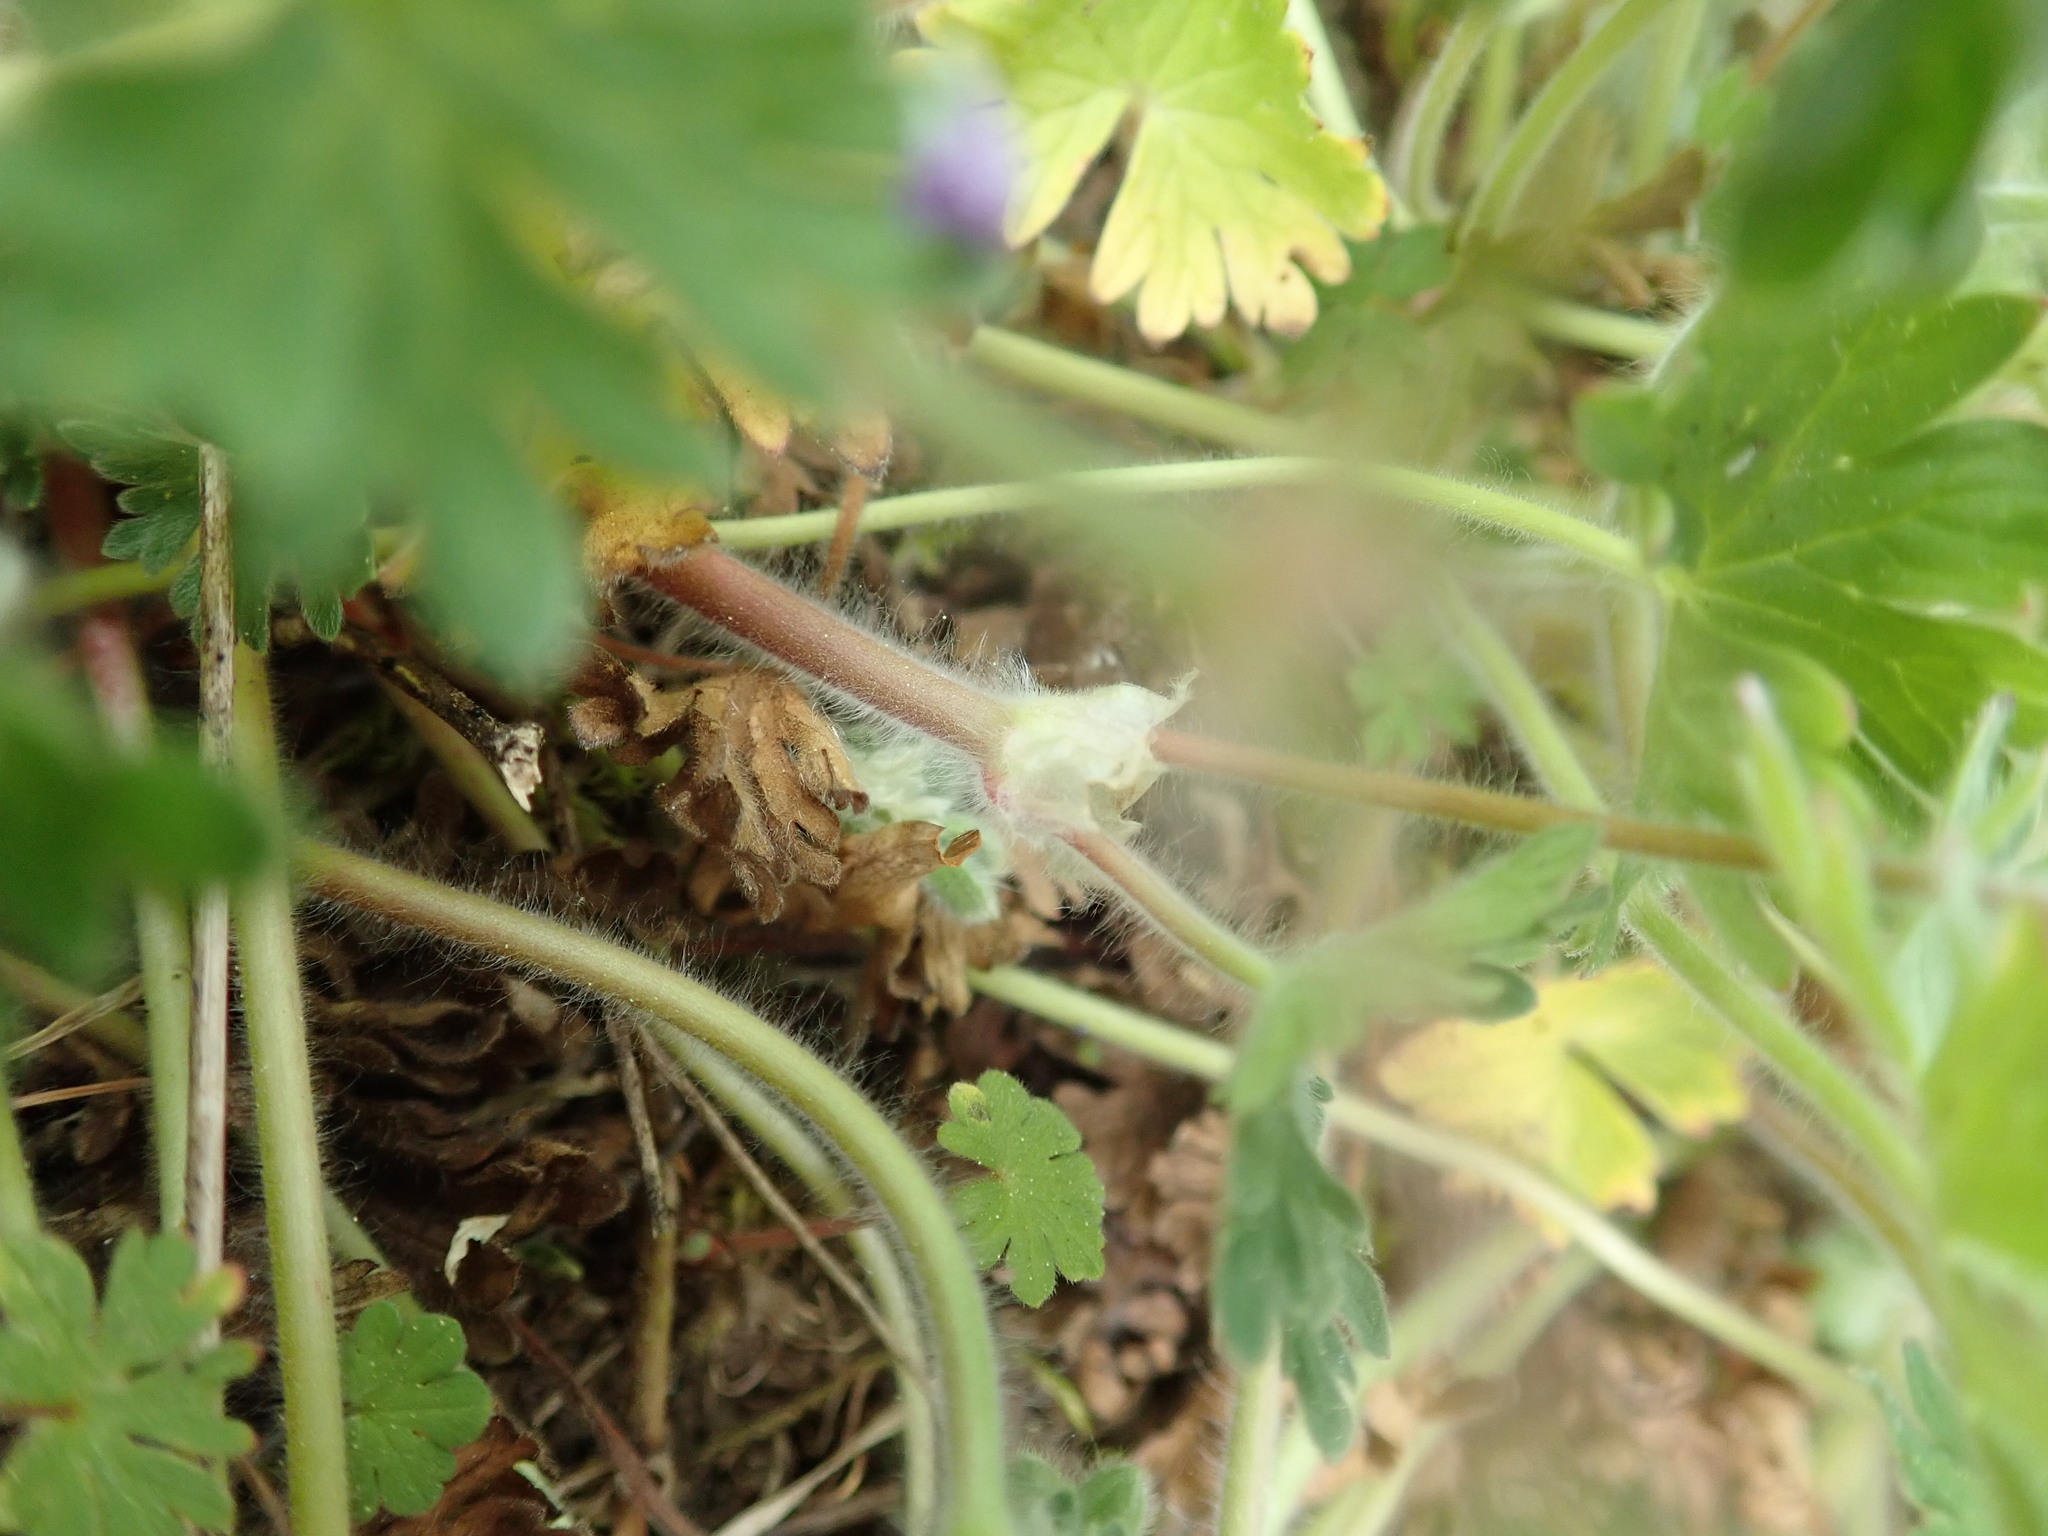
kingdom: Plantae
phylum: Tracheophyta
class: Magnoliopsida
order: Geraniales
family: Geraniaceae
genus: Geranium
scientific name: Geranium molle
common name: Dove's-foot crane's-bill
